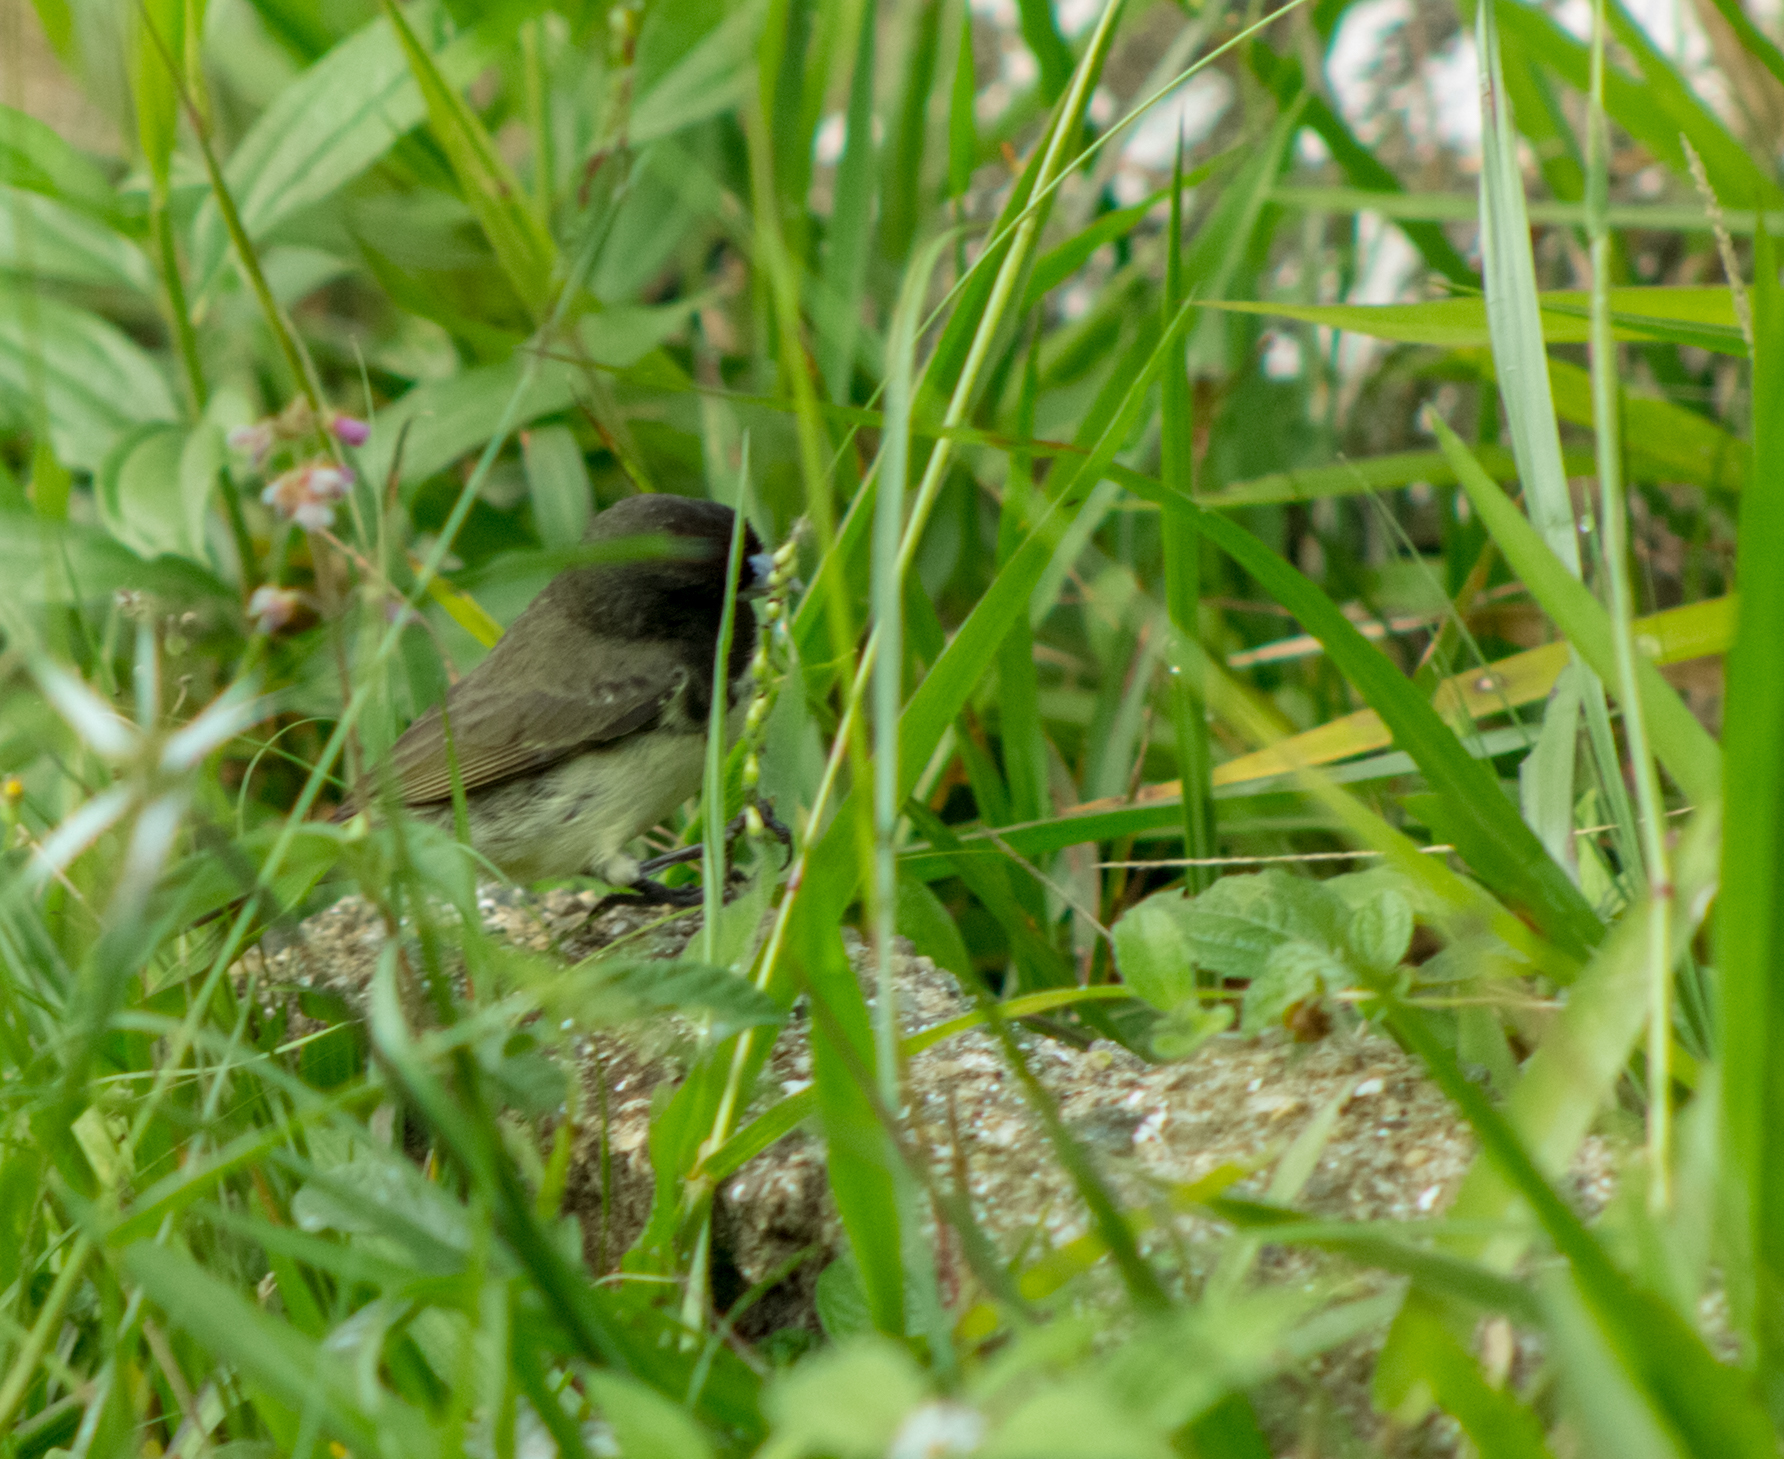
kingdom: Animalia
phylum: Chordata
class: Aves
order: Passeriformes
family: Thraupidae
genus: Sporophila
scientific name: Sporophila nigricollis
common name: Yellow-bellied seedeater
